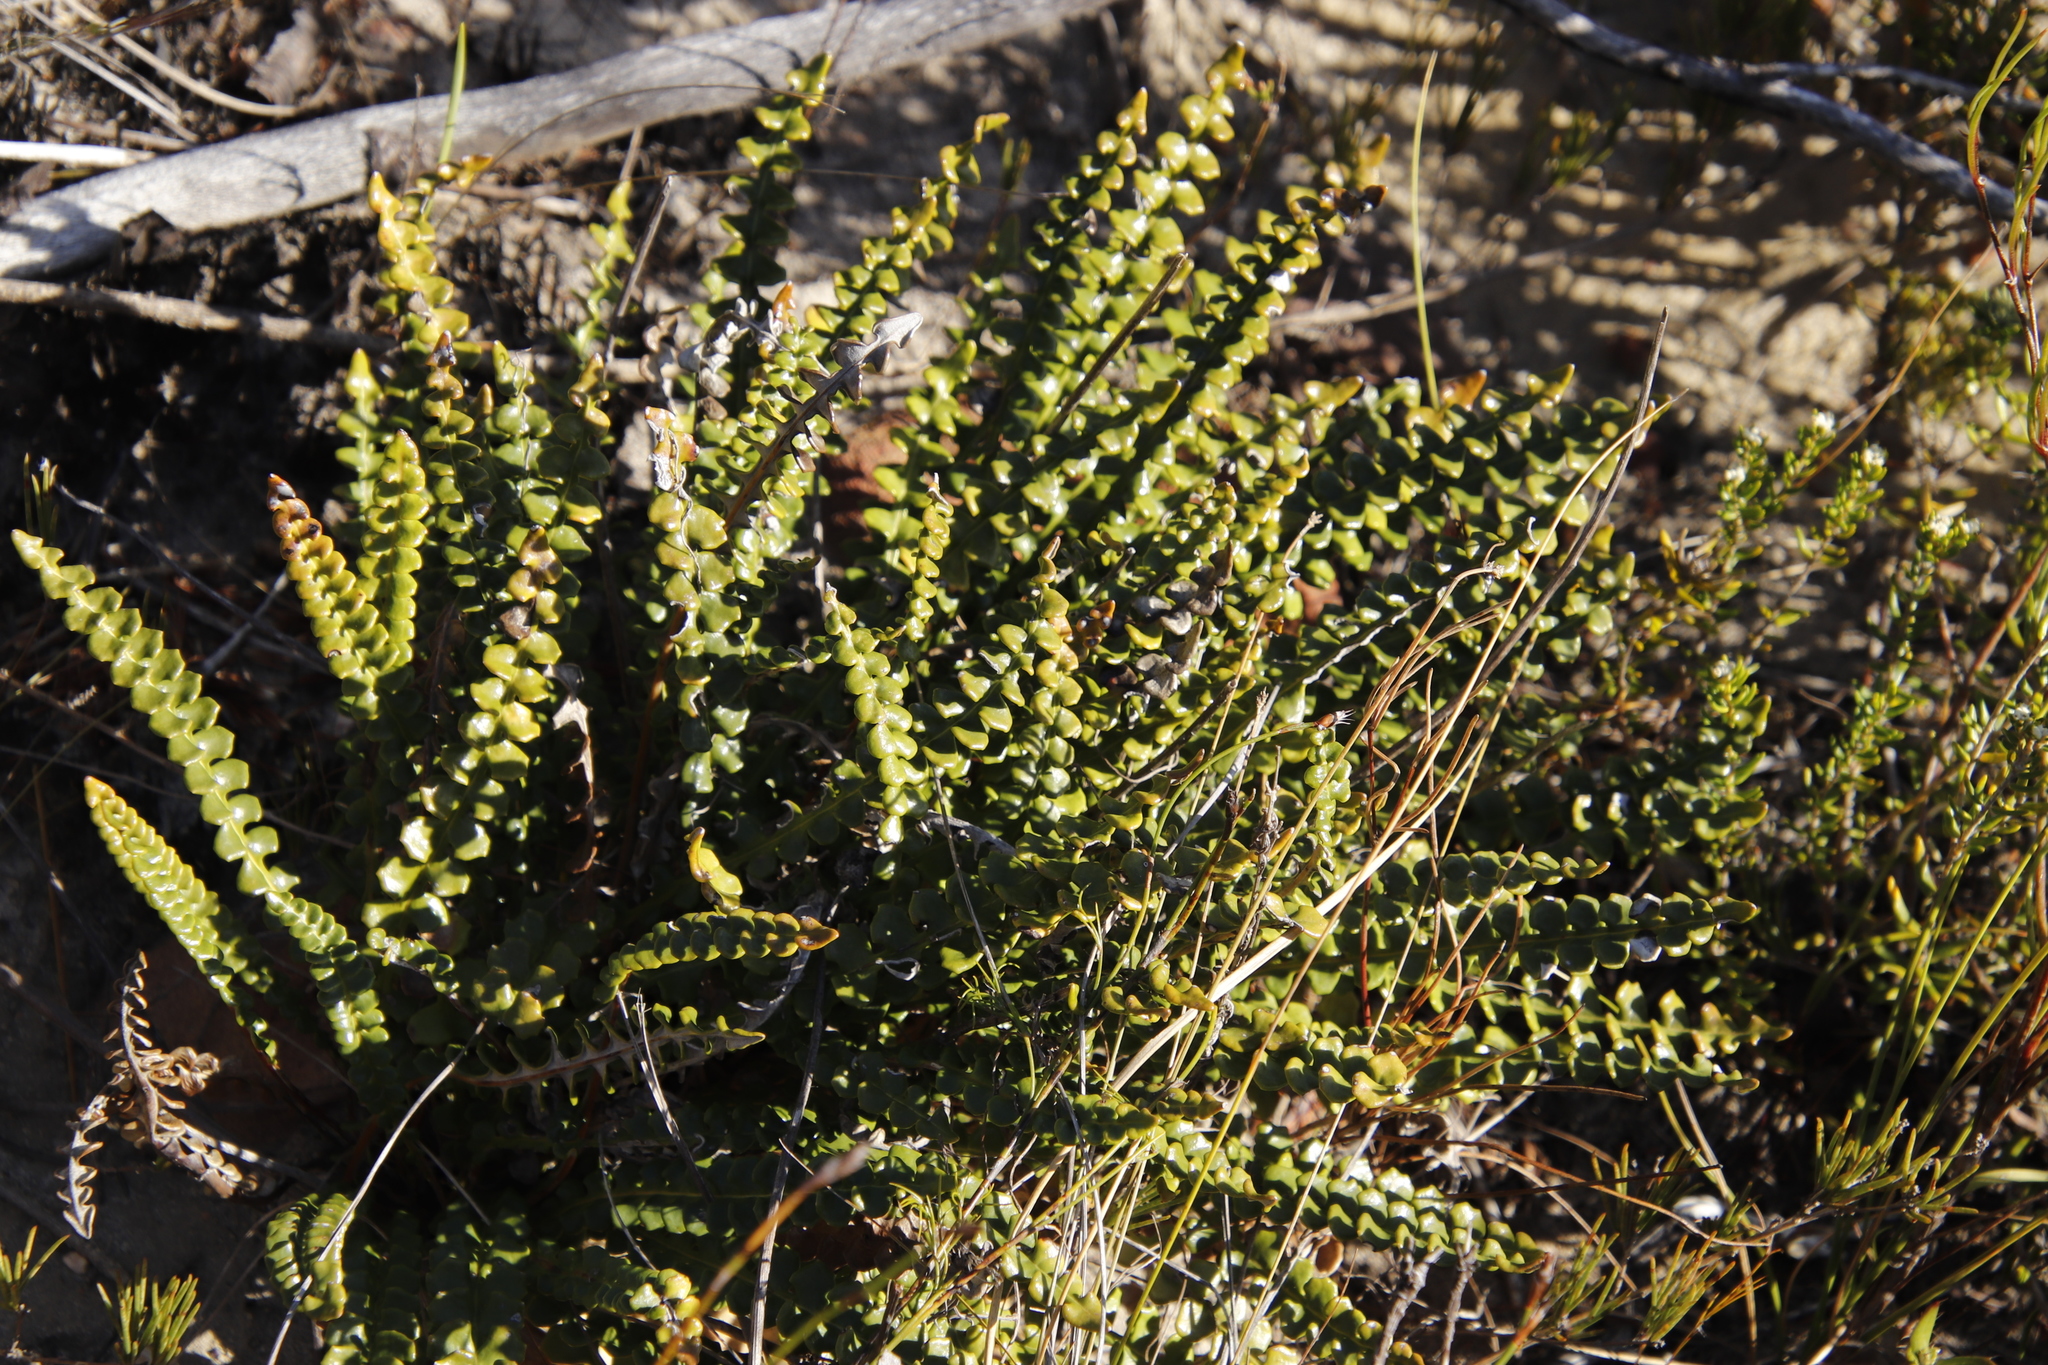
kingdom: Plantae
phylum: Tracheophyta
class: Magnoliopsida
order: Asterales
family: Asteraceae
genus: Gerbera
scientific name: Gerbera linnaei
